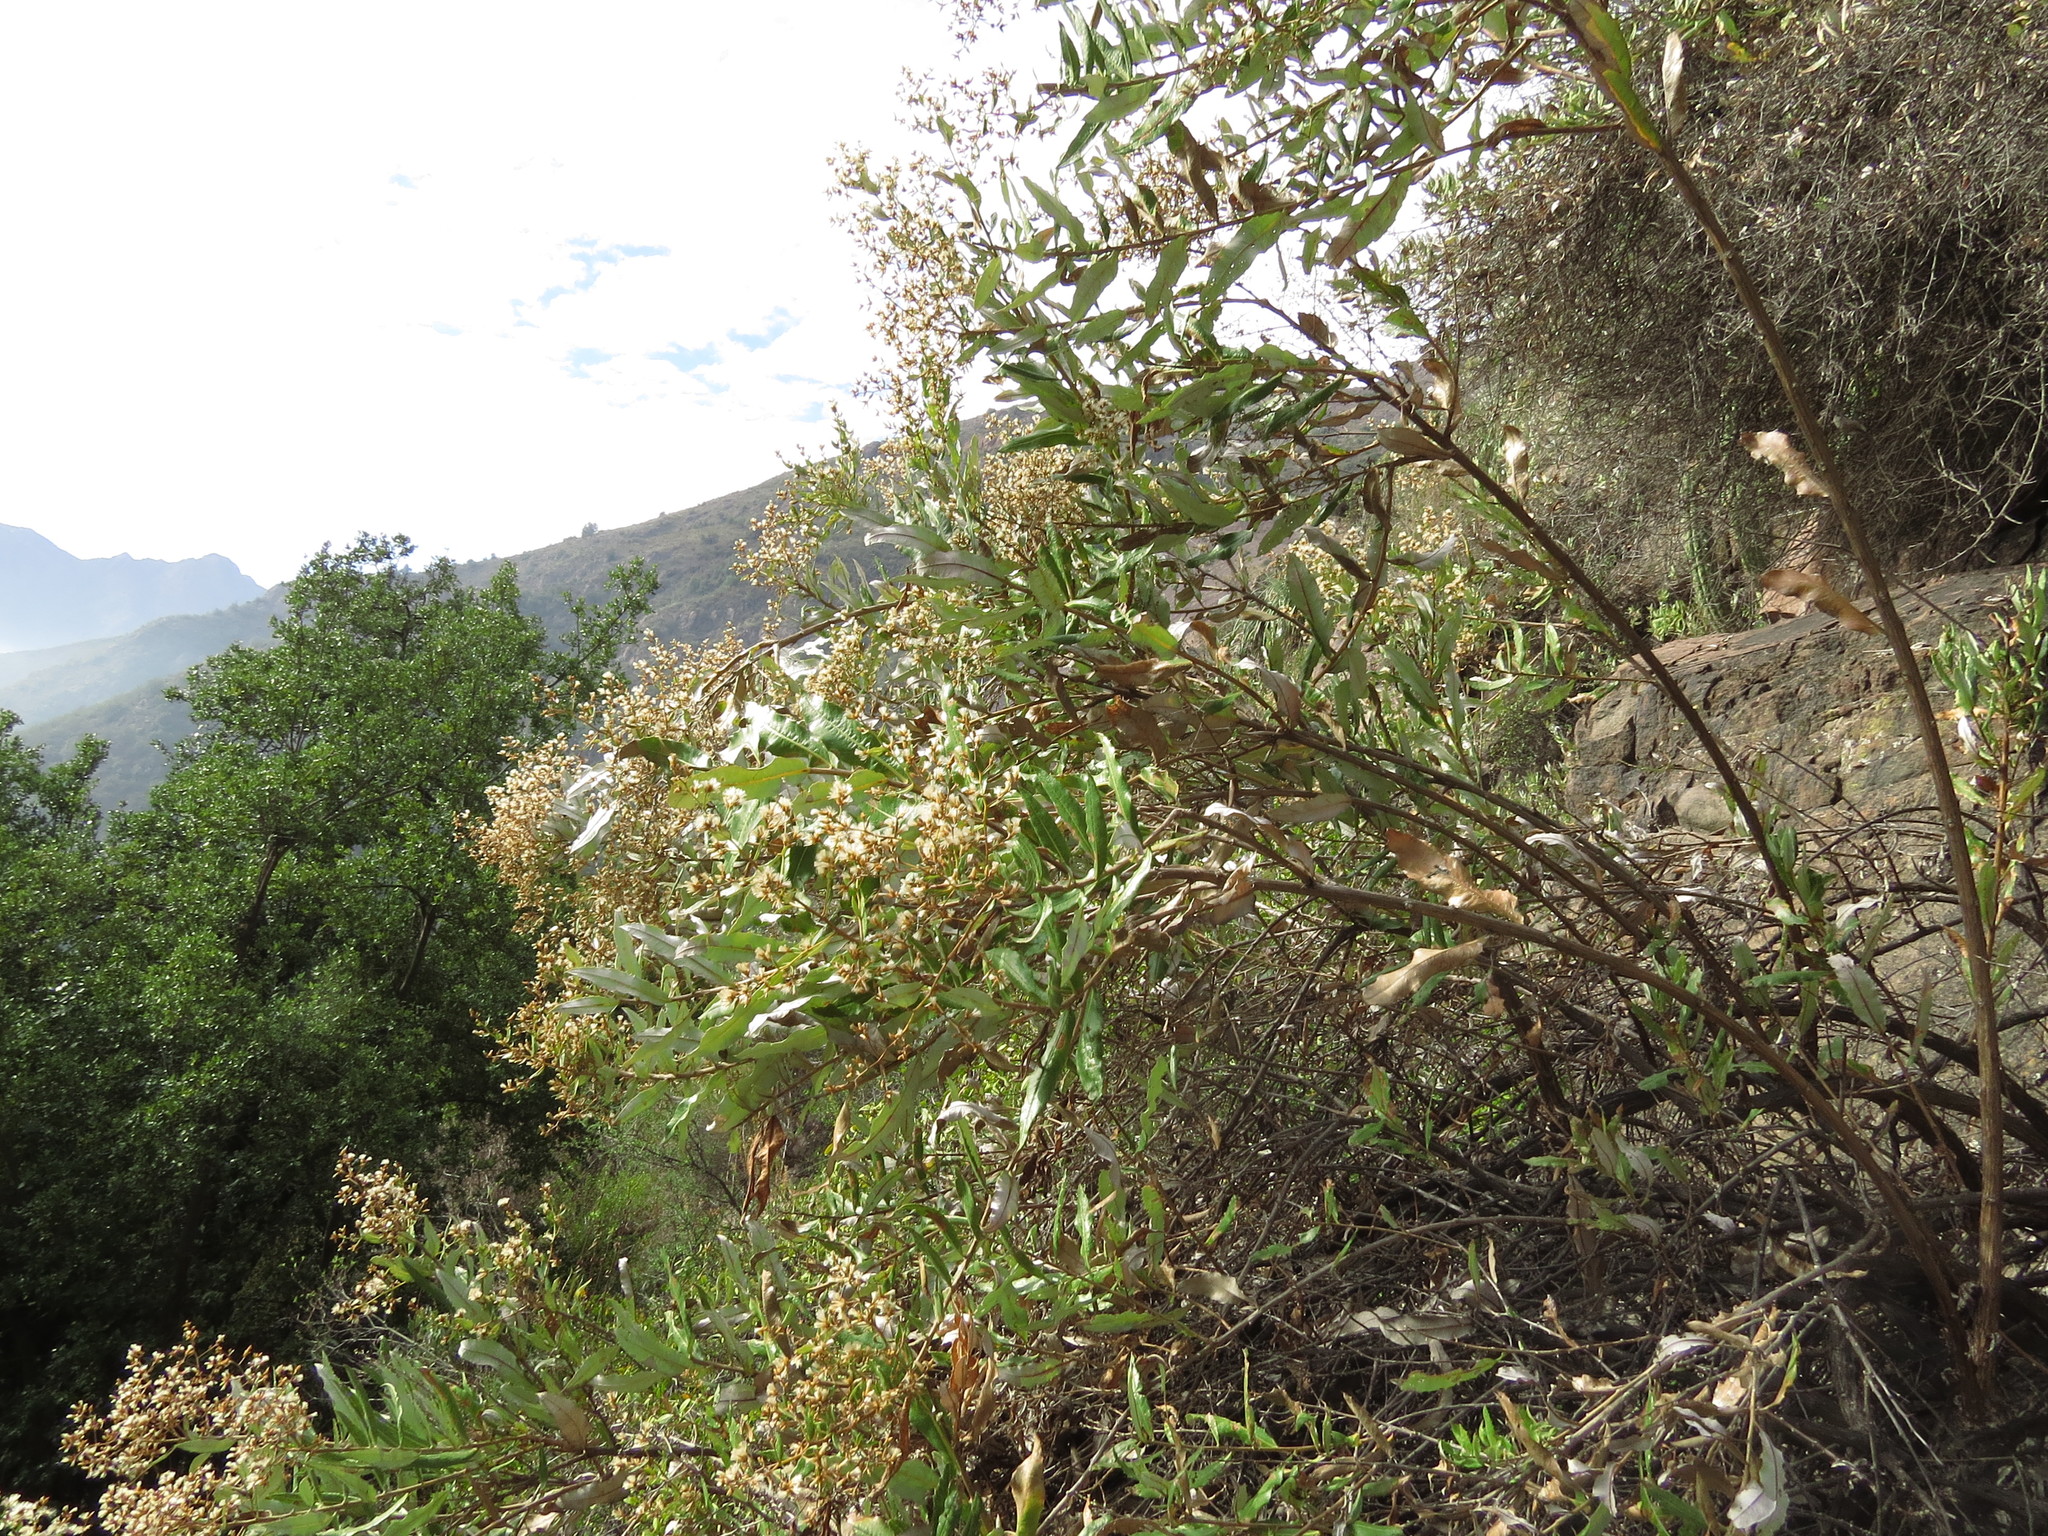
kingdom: Plantae
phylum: Tracheophyta
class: Magnoliopsida
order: Asterales
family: Asteraceae
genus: Spinoliva
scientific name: Spinoliva ilicifolia
